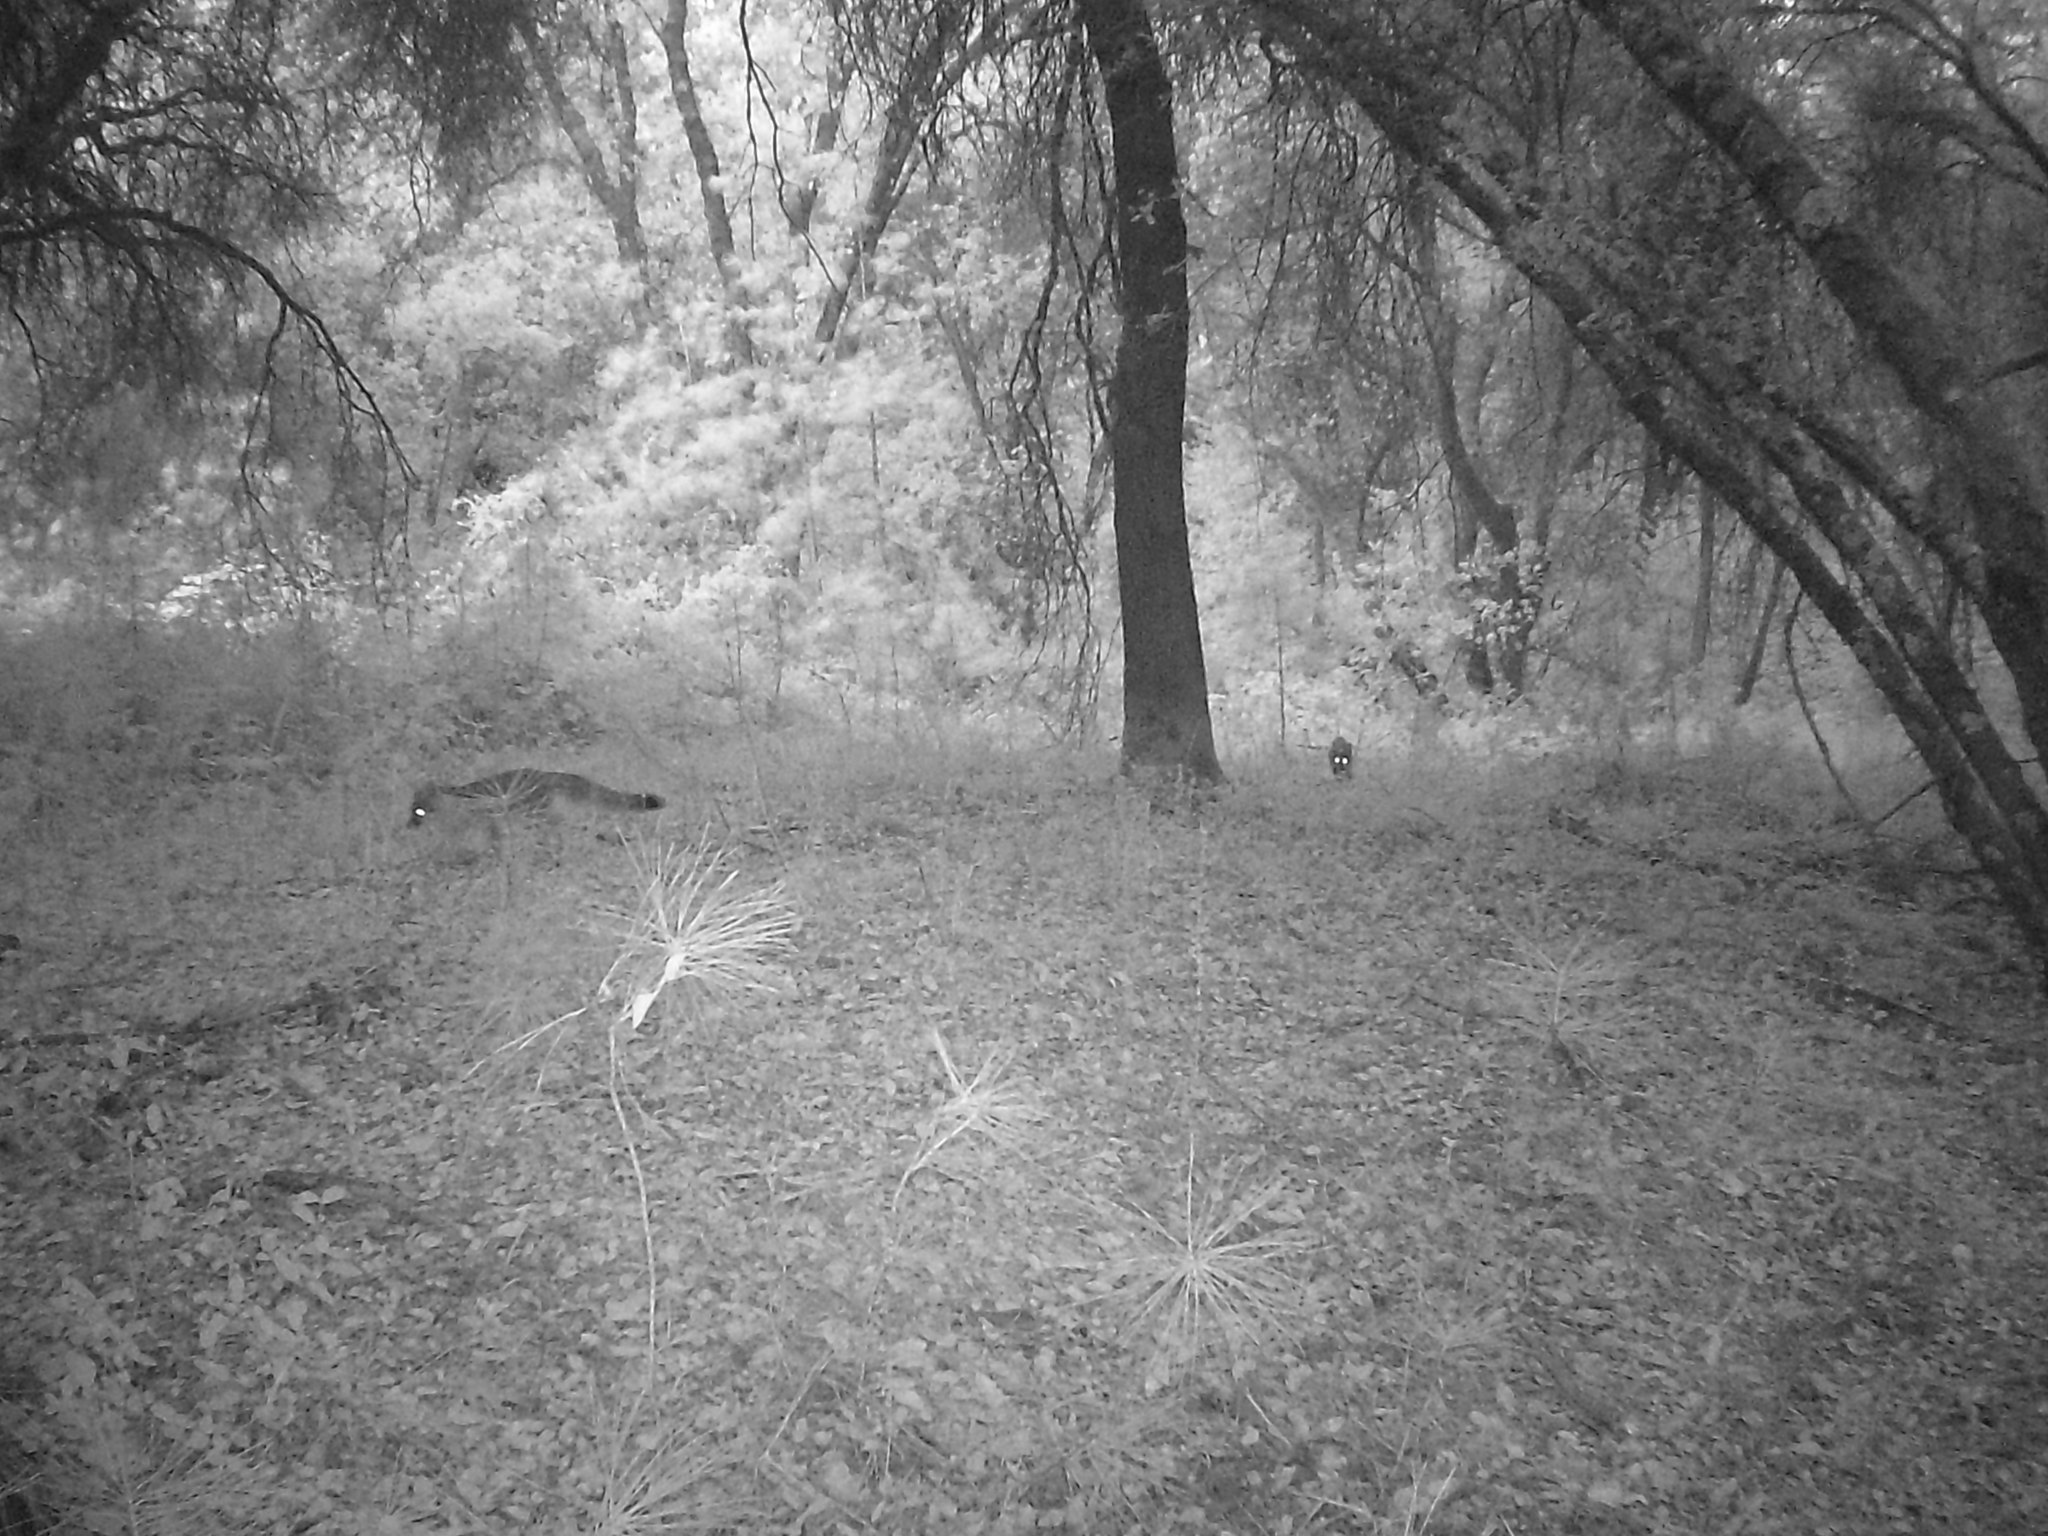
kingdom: Animalia
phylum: Chordata
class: Mammalia
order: Carnivora
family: Canidae
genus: Urocyon
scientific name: Urocyon cinereoargenteus
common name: Gray fox
